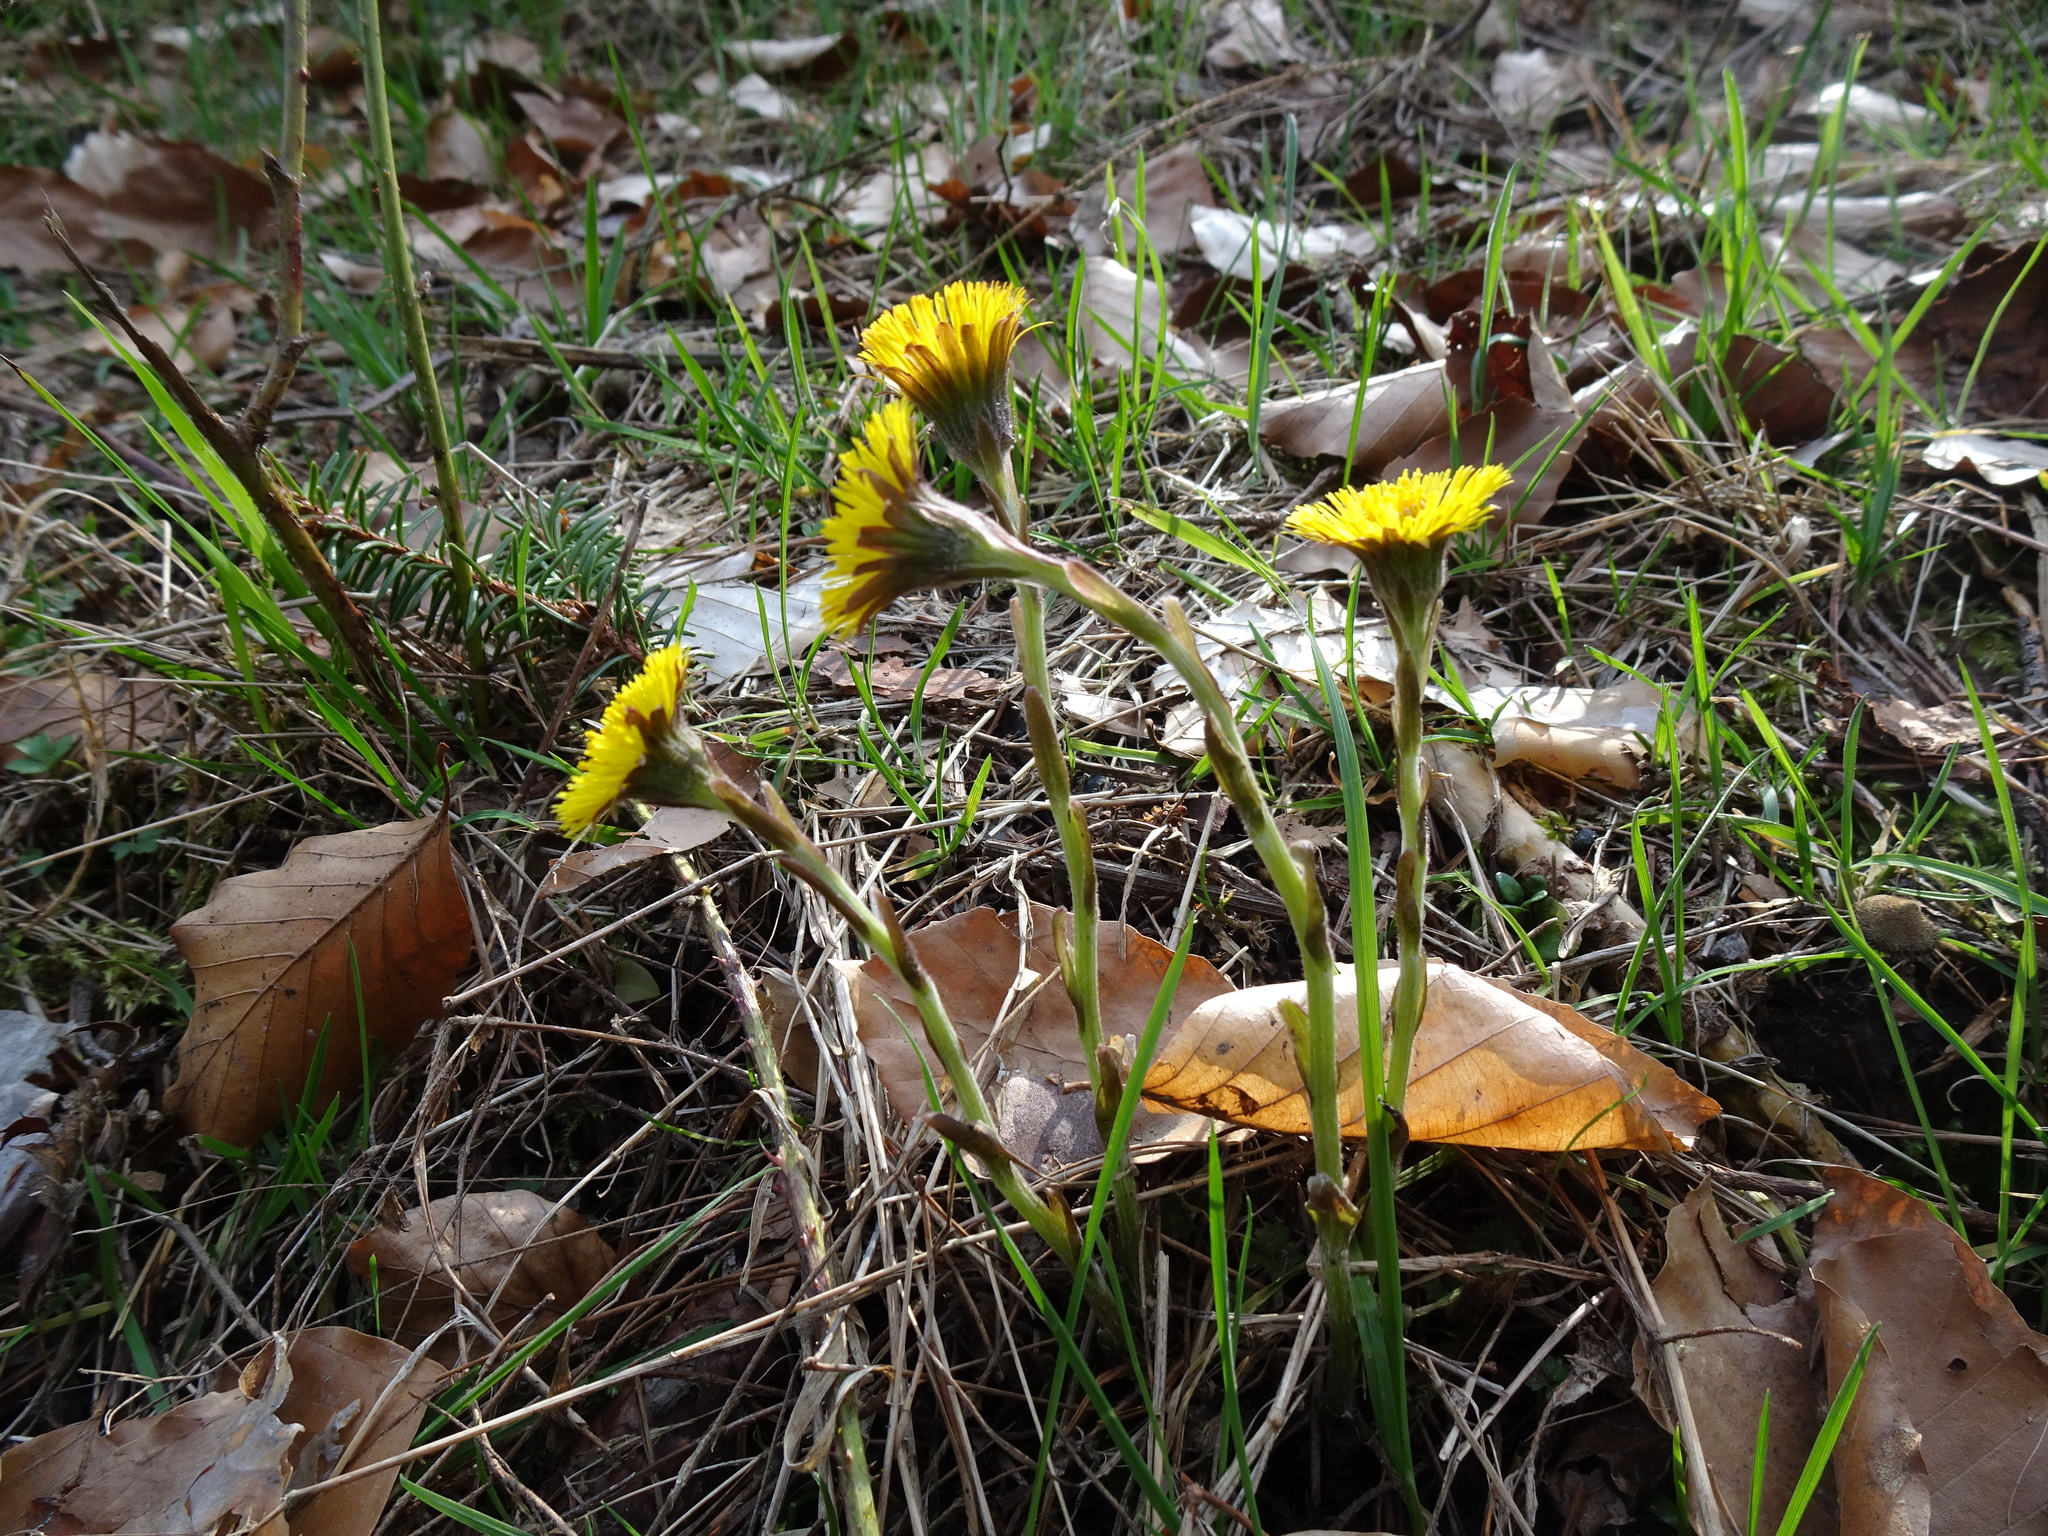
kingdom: Plantae
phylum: Tracheophyta
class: Magnoliopsida
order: Asterales
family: Asteraceae
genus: Tussilago
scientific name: Tussilago farfara
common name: Coltsfoot
